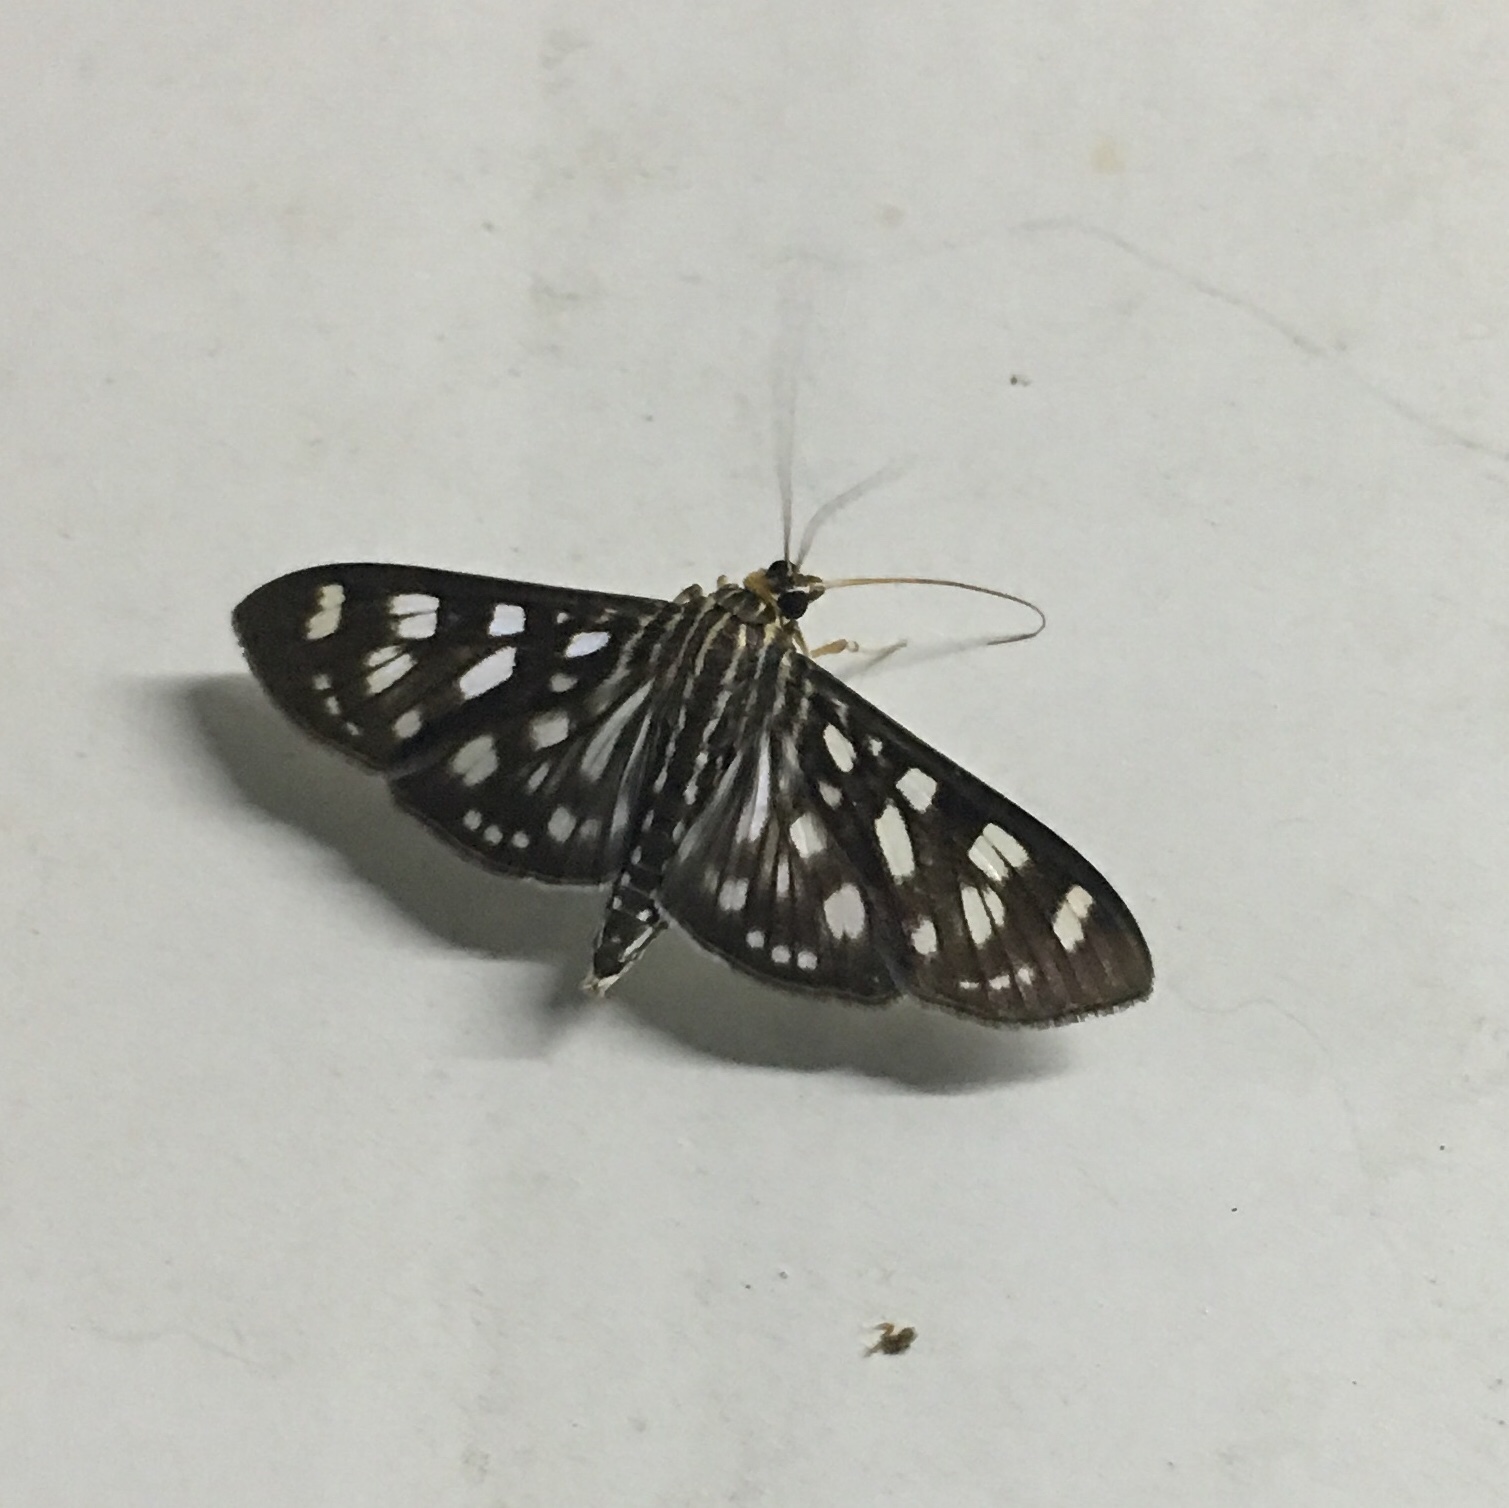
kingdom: Animalia
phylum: Arthropoda
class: Insecta
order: Lepidoptera
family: Crambidae
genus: Pygospila
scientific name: Pygospila tyres
